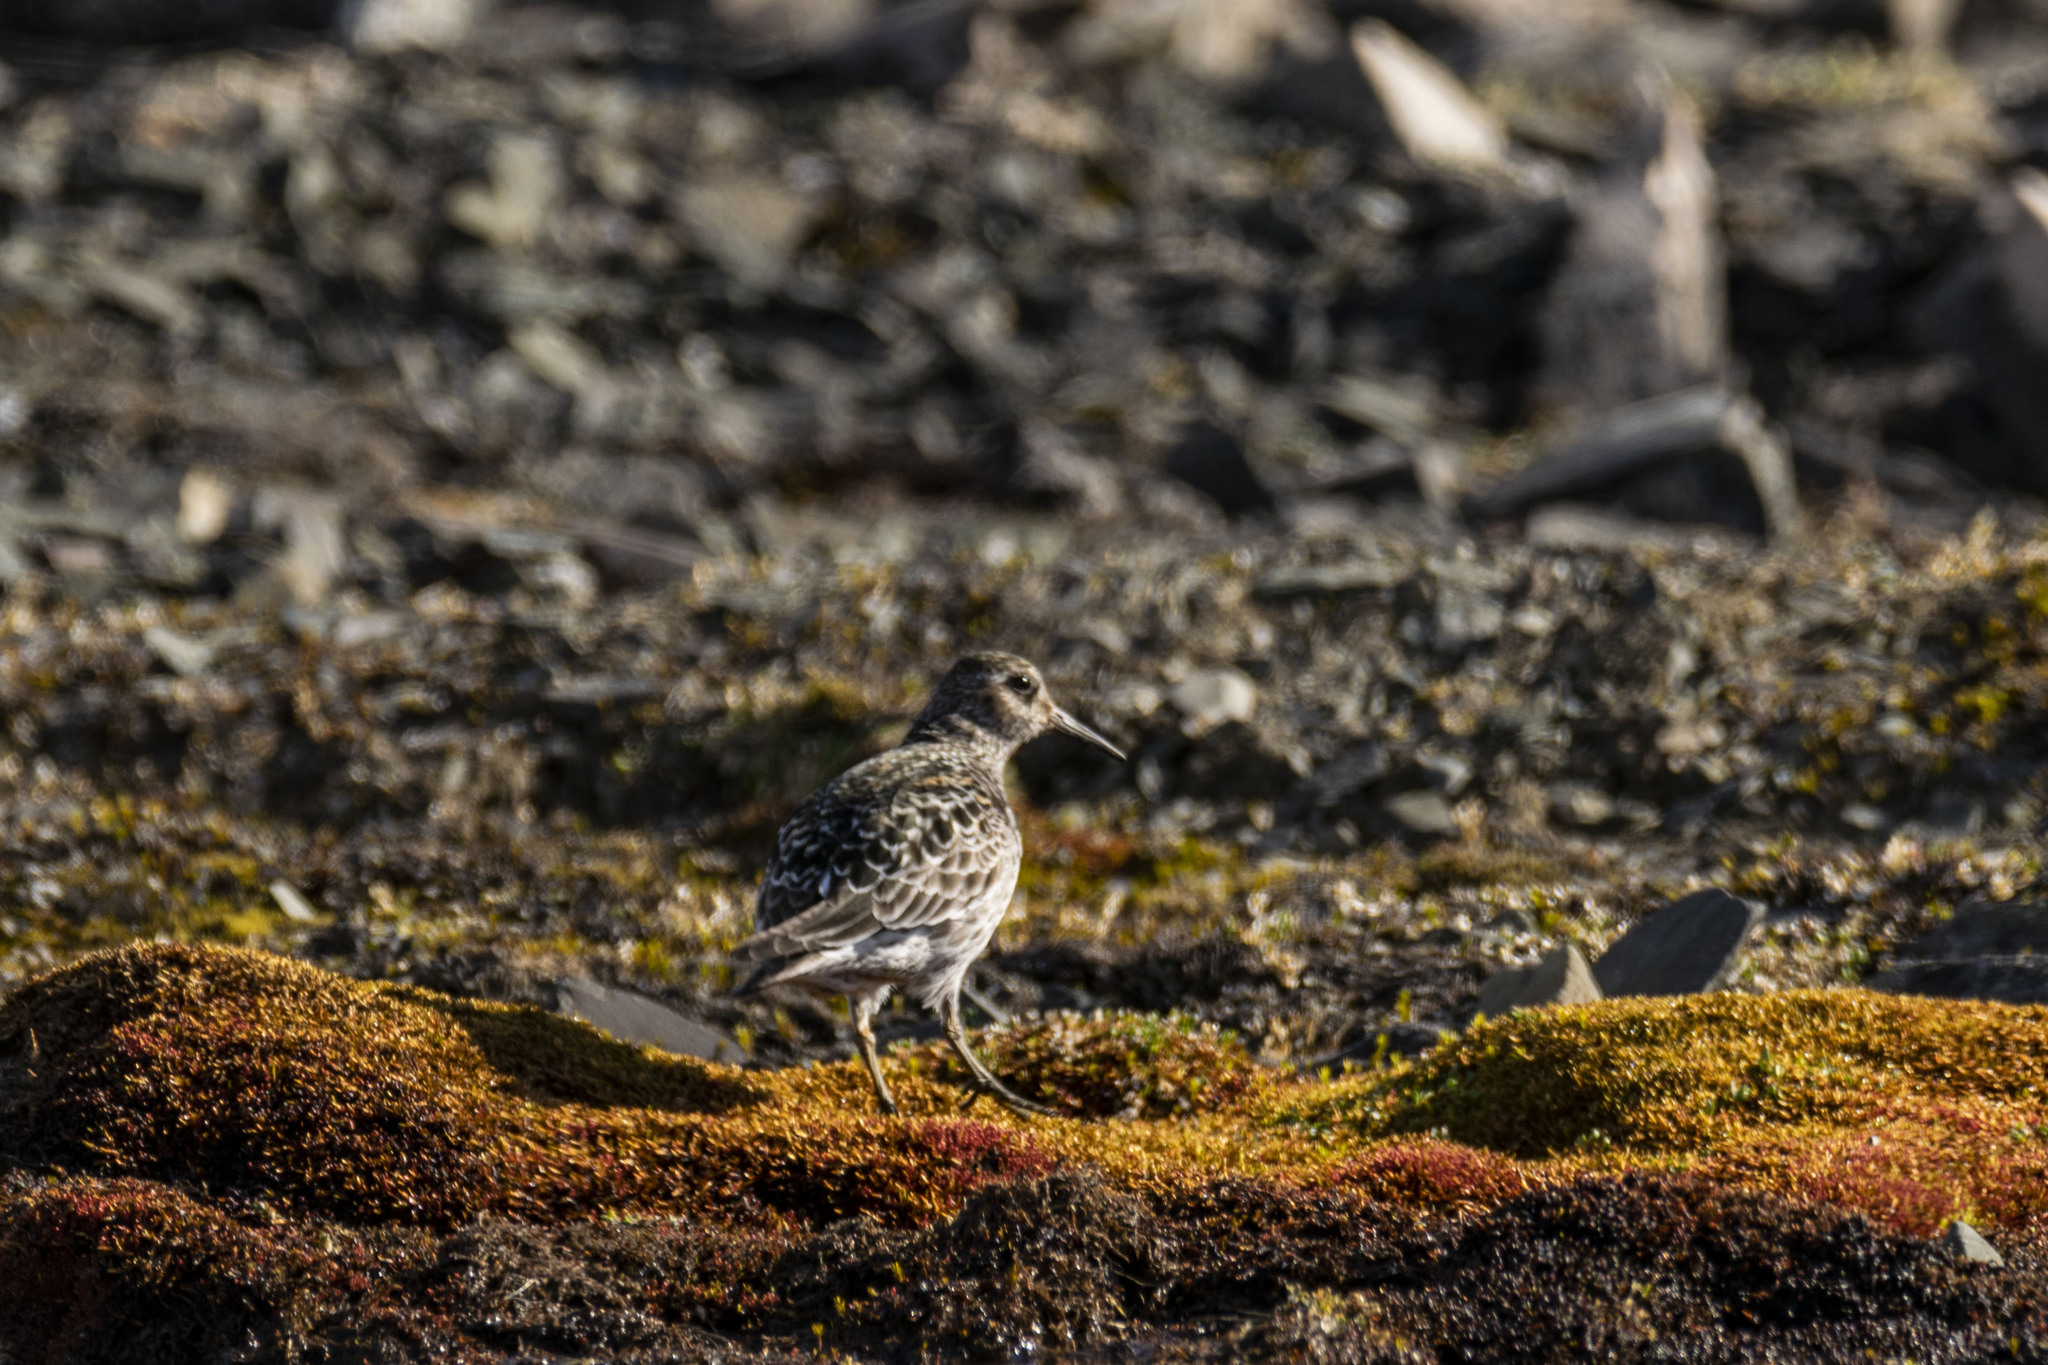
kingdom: Animalia
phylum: Chordata
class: Aves
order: Charadriiformes
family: Scolopacidae
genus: Calidris
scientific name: Calidris maritima
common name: Purple sandpiper
